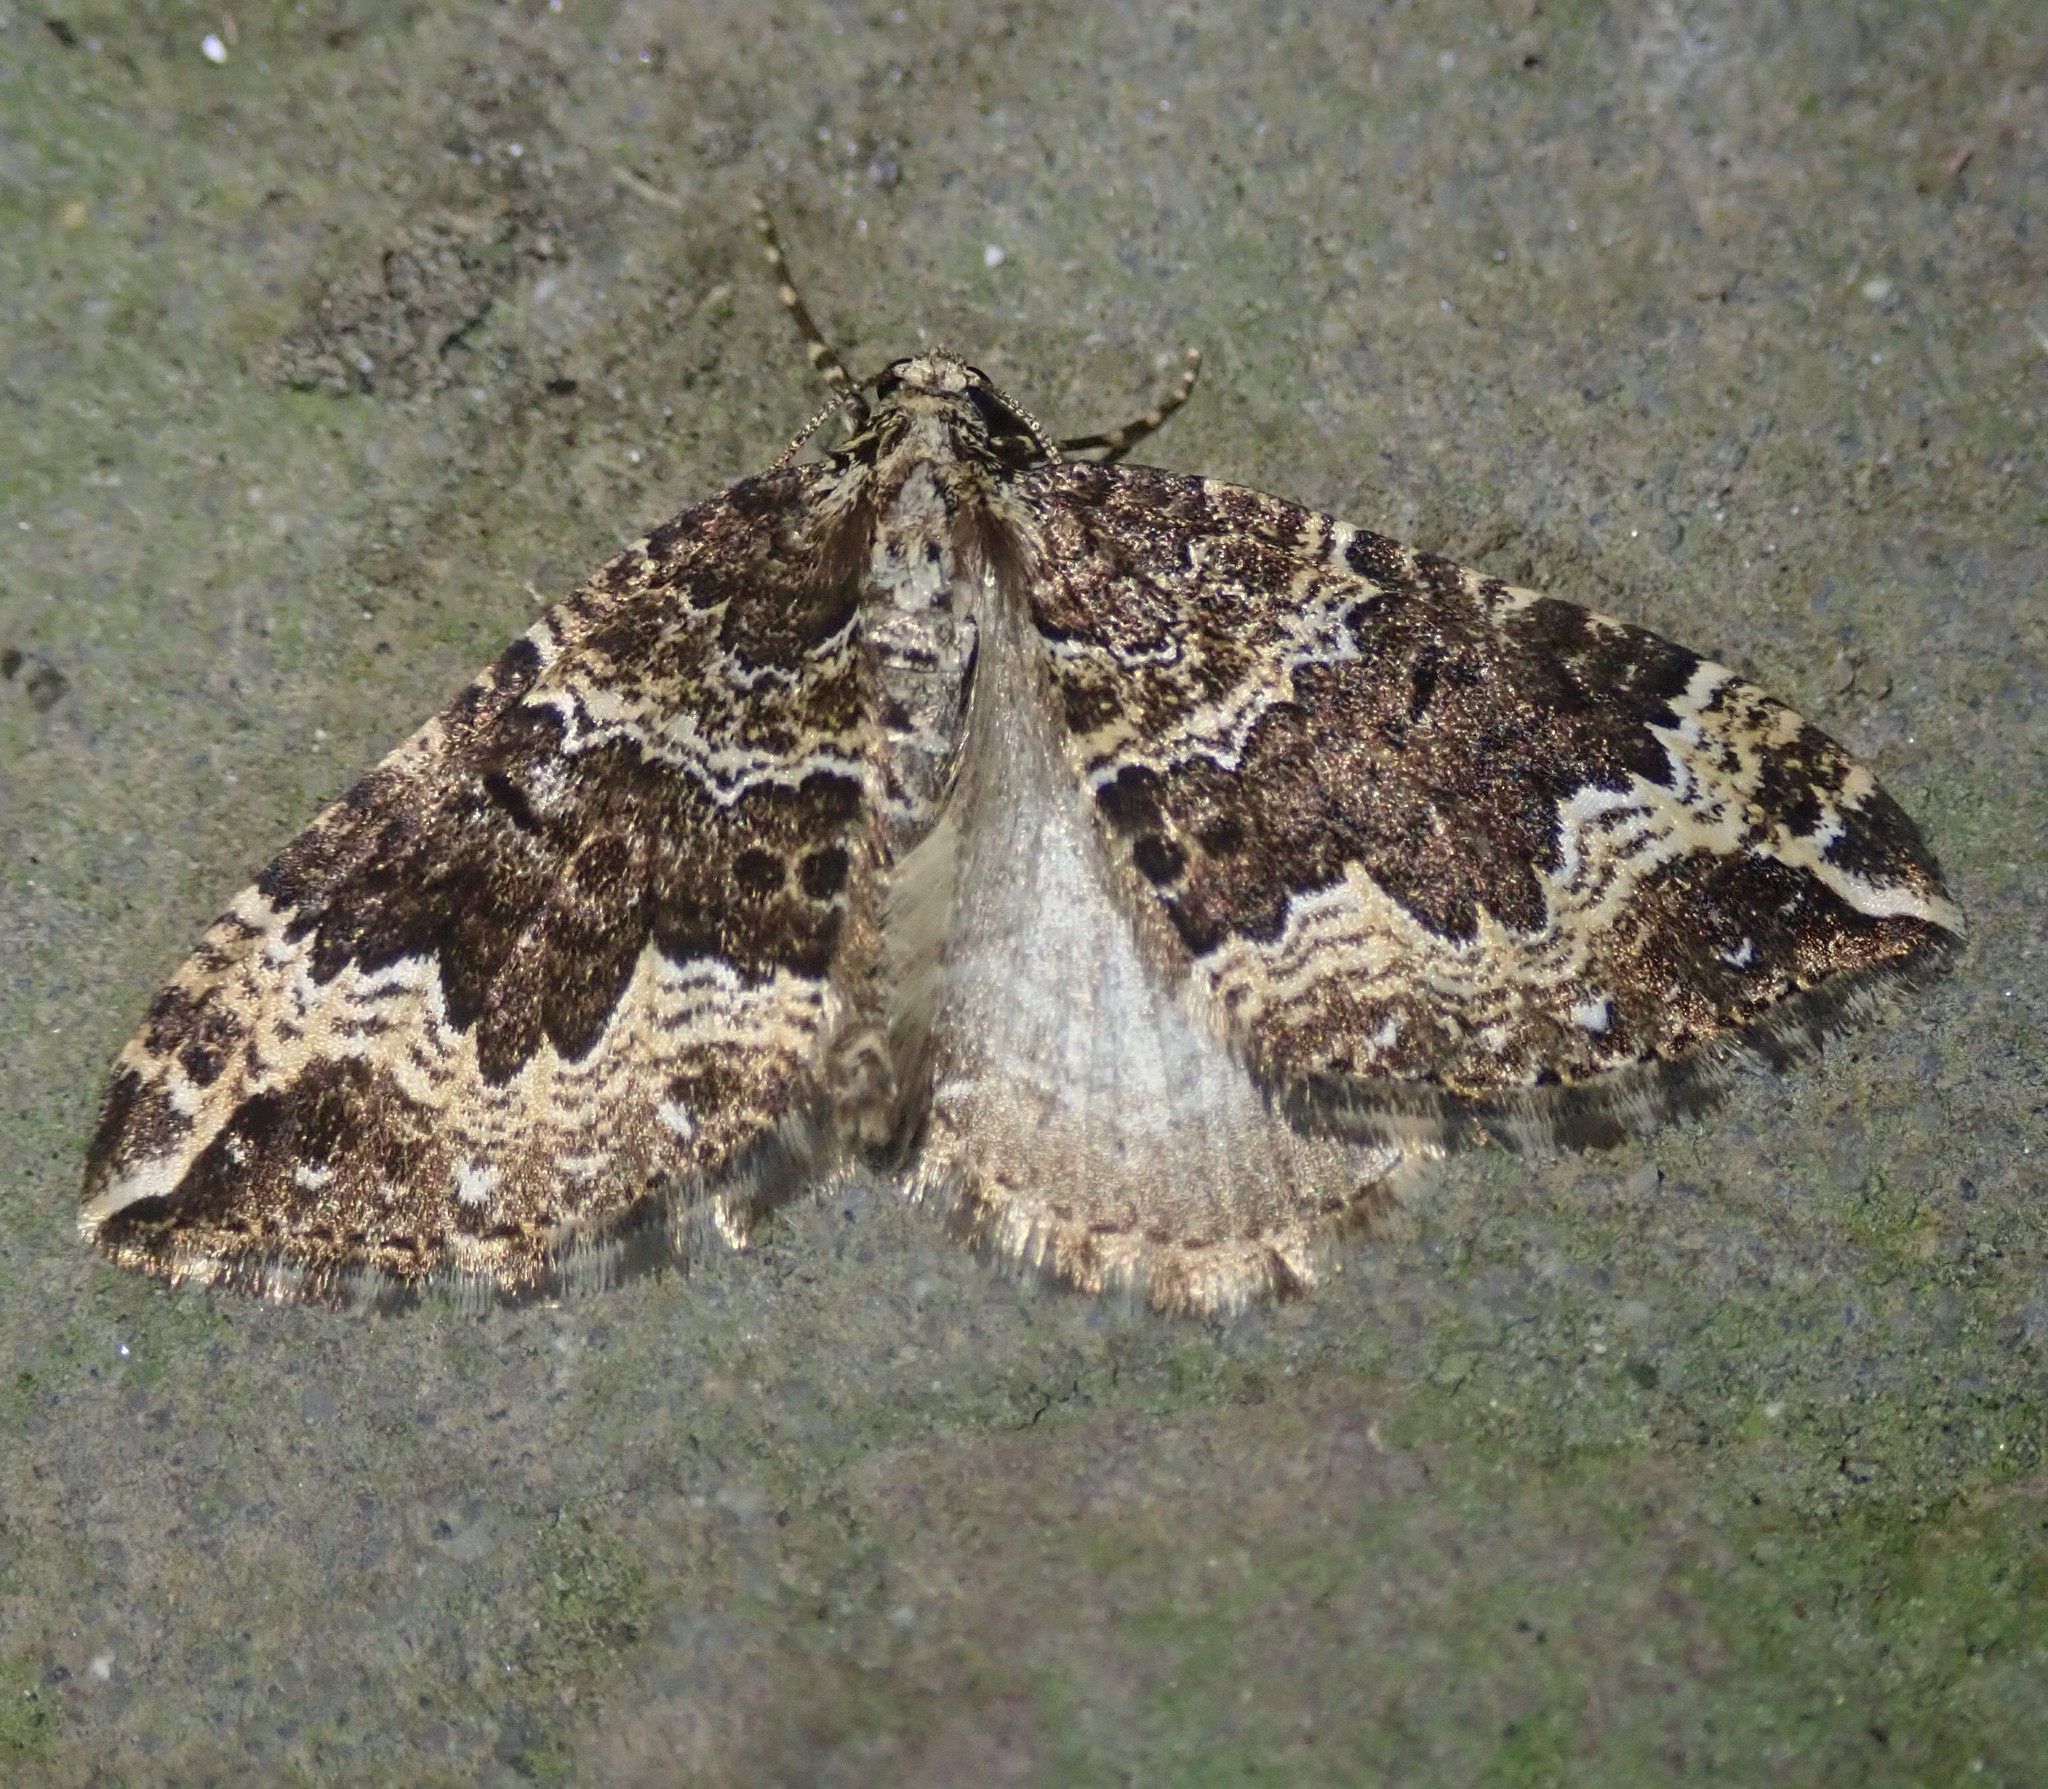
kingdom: Animalia
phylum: Arthropoda
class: Insecta
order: Lepidoptera
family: Geometridae
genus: Lampropteryx
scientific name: Lampropteryx suffumata
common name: Water carpet
